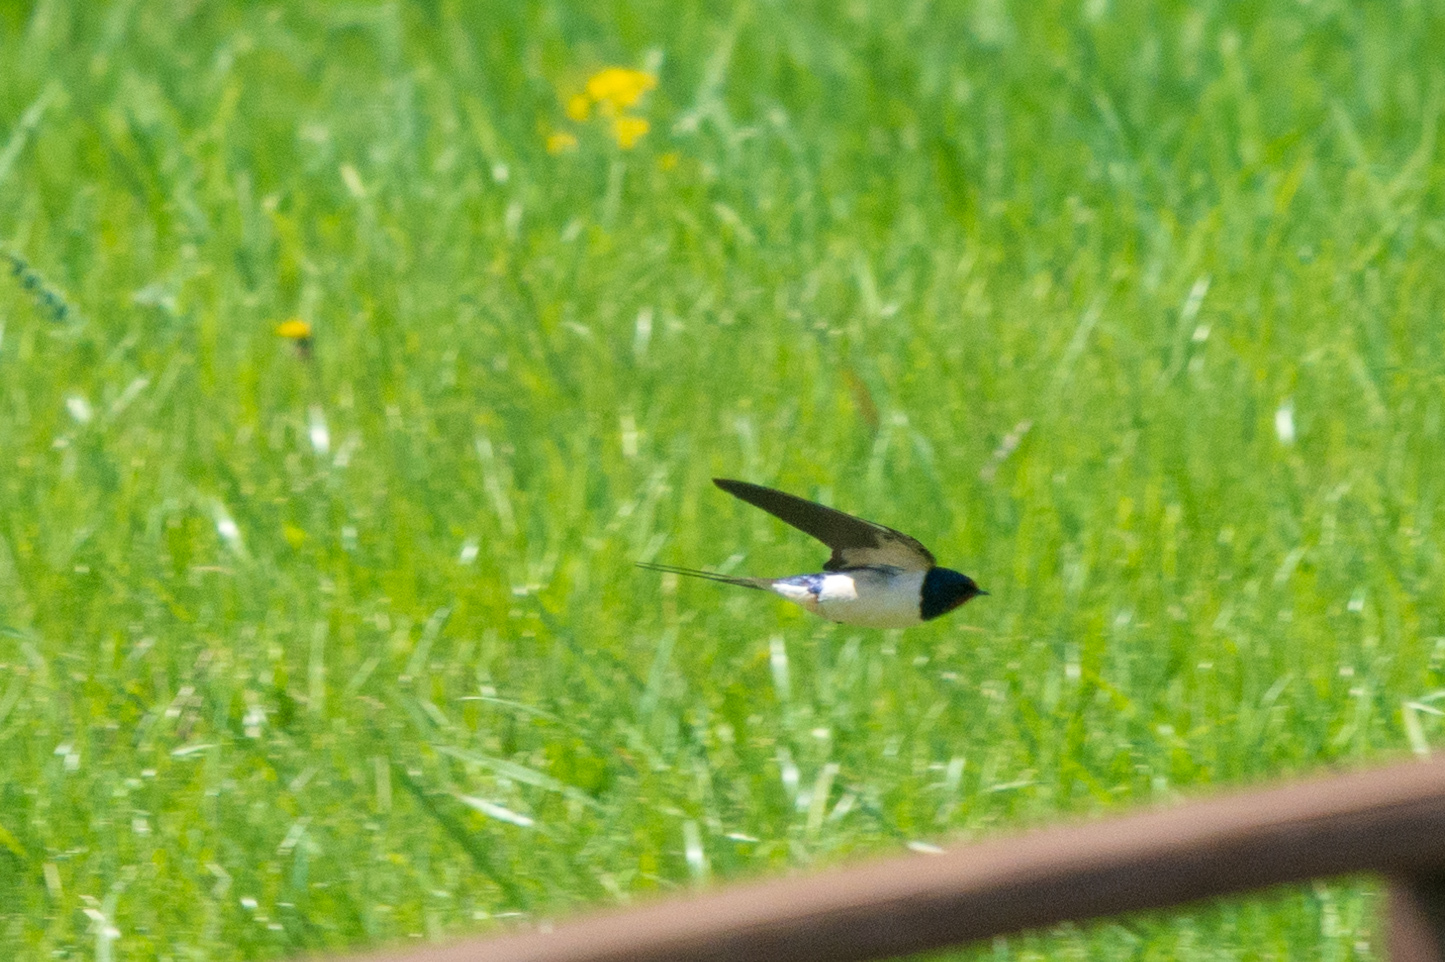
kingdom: Animalia
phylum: Chordata
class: Aves
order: Passeriformes
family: Hirundinidae
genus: Hirundo
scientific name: Hirundo rustica
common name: Barn swallow
